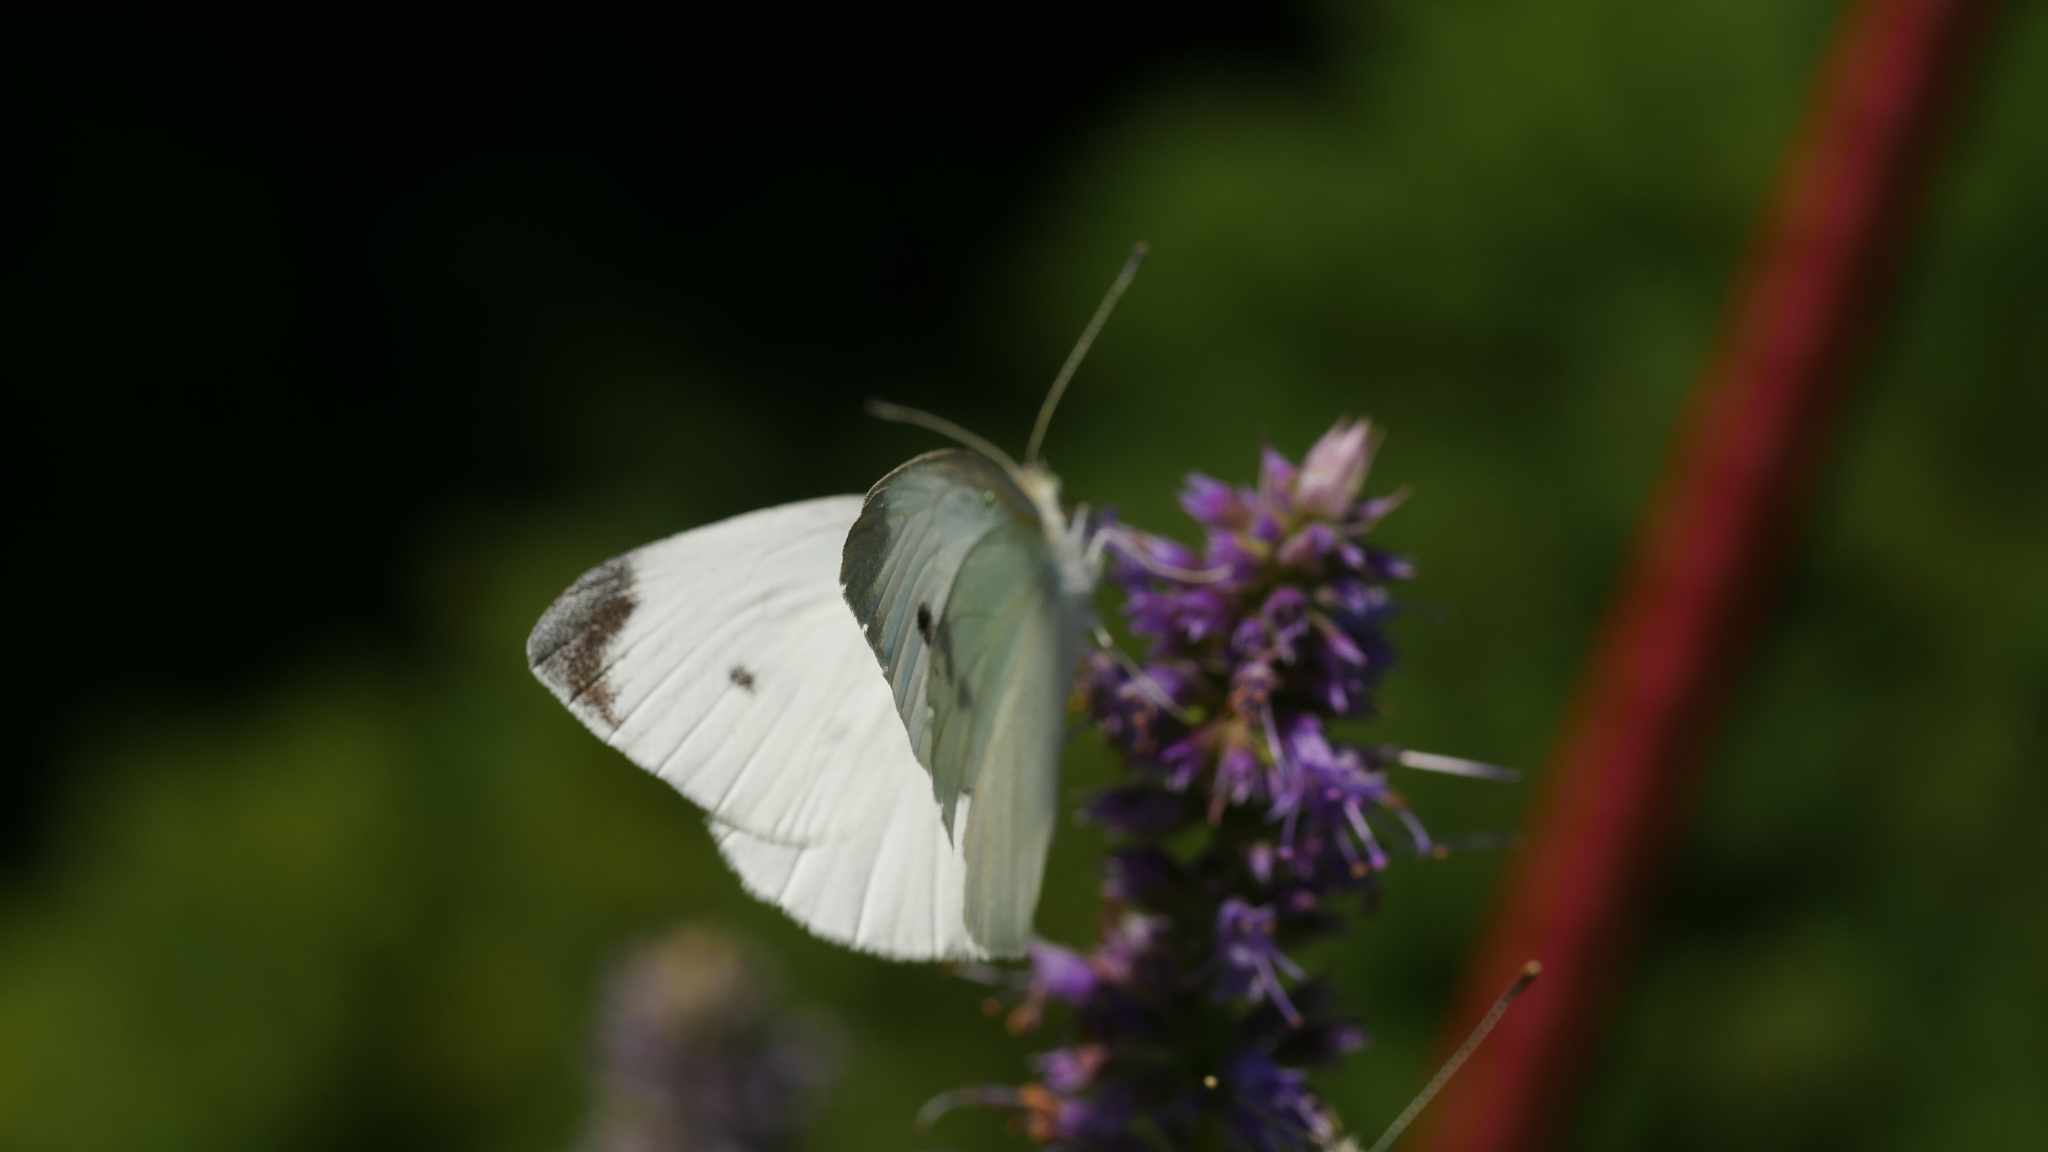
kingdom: Animalia
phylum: Arthropoda
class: Insecta
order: Lepidoptera
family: Pieridae
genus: Pieris
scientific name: Pieris rapae
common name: Small white
